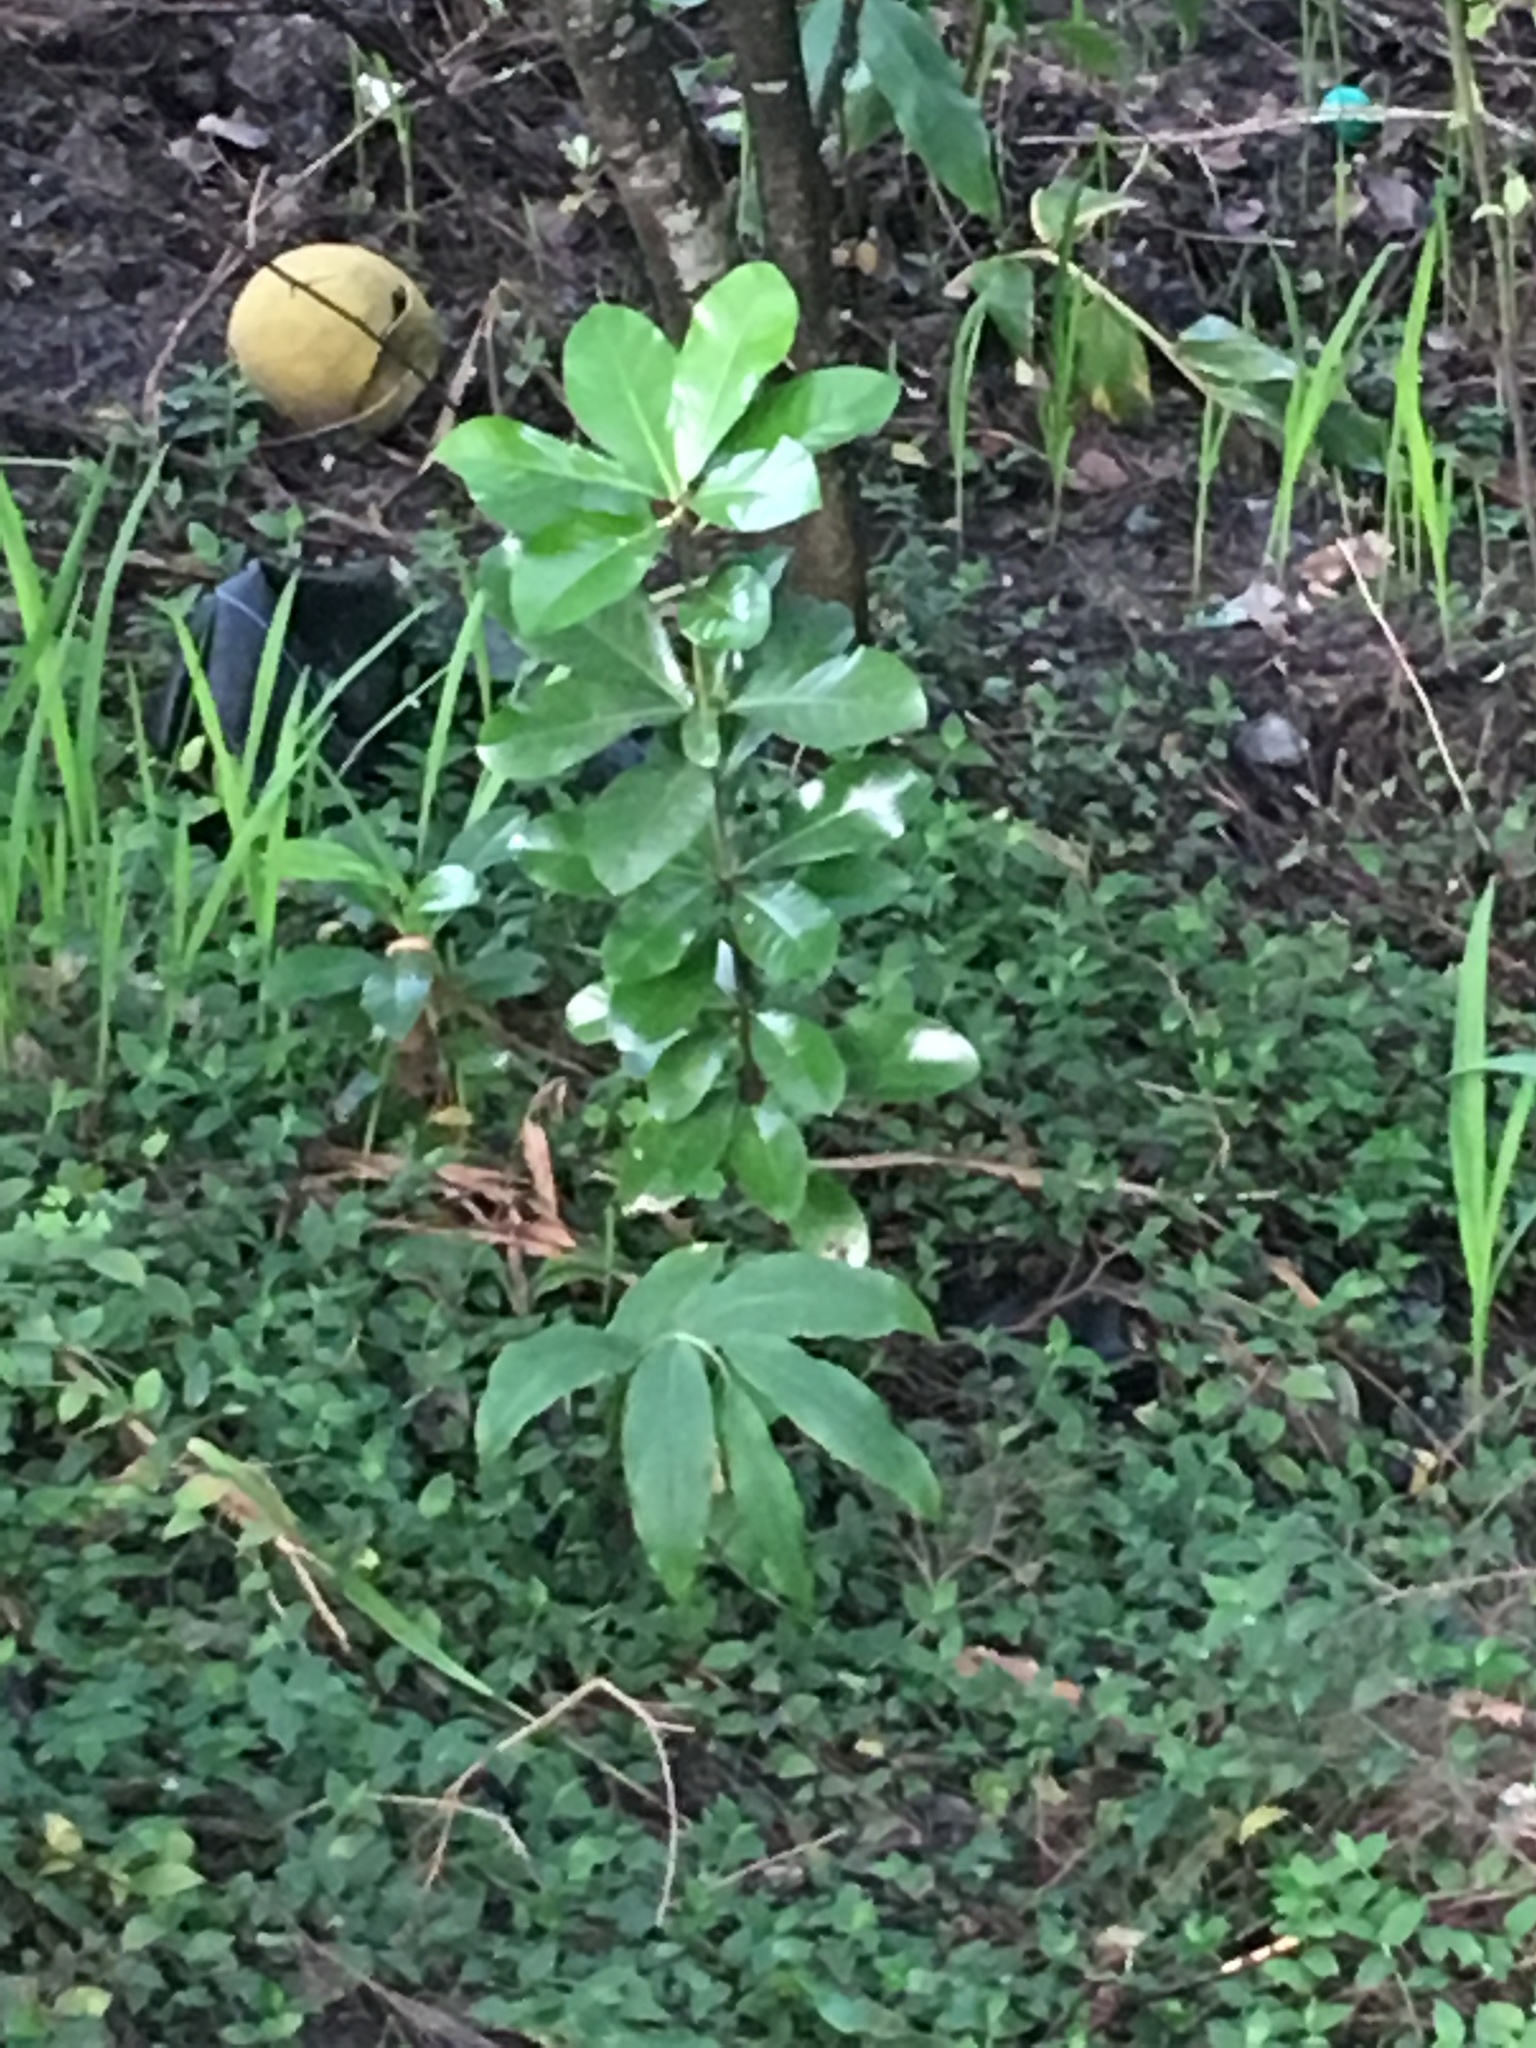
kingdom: Plantae
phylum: Tracheophyta
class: Magnoliopsida
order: Cucurbitales
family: Corynocarpaceae
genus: Corynocarpus
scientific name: Corynocarpus laevigatus
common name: New zealand laurel
